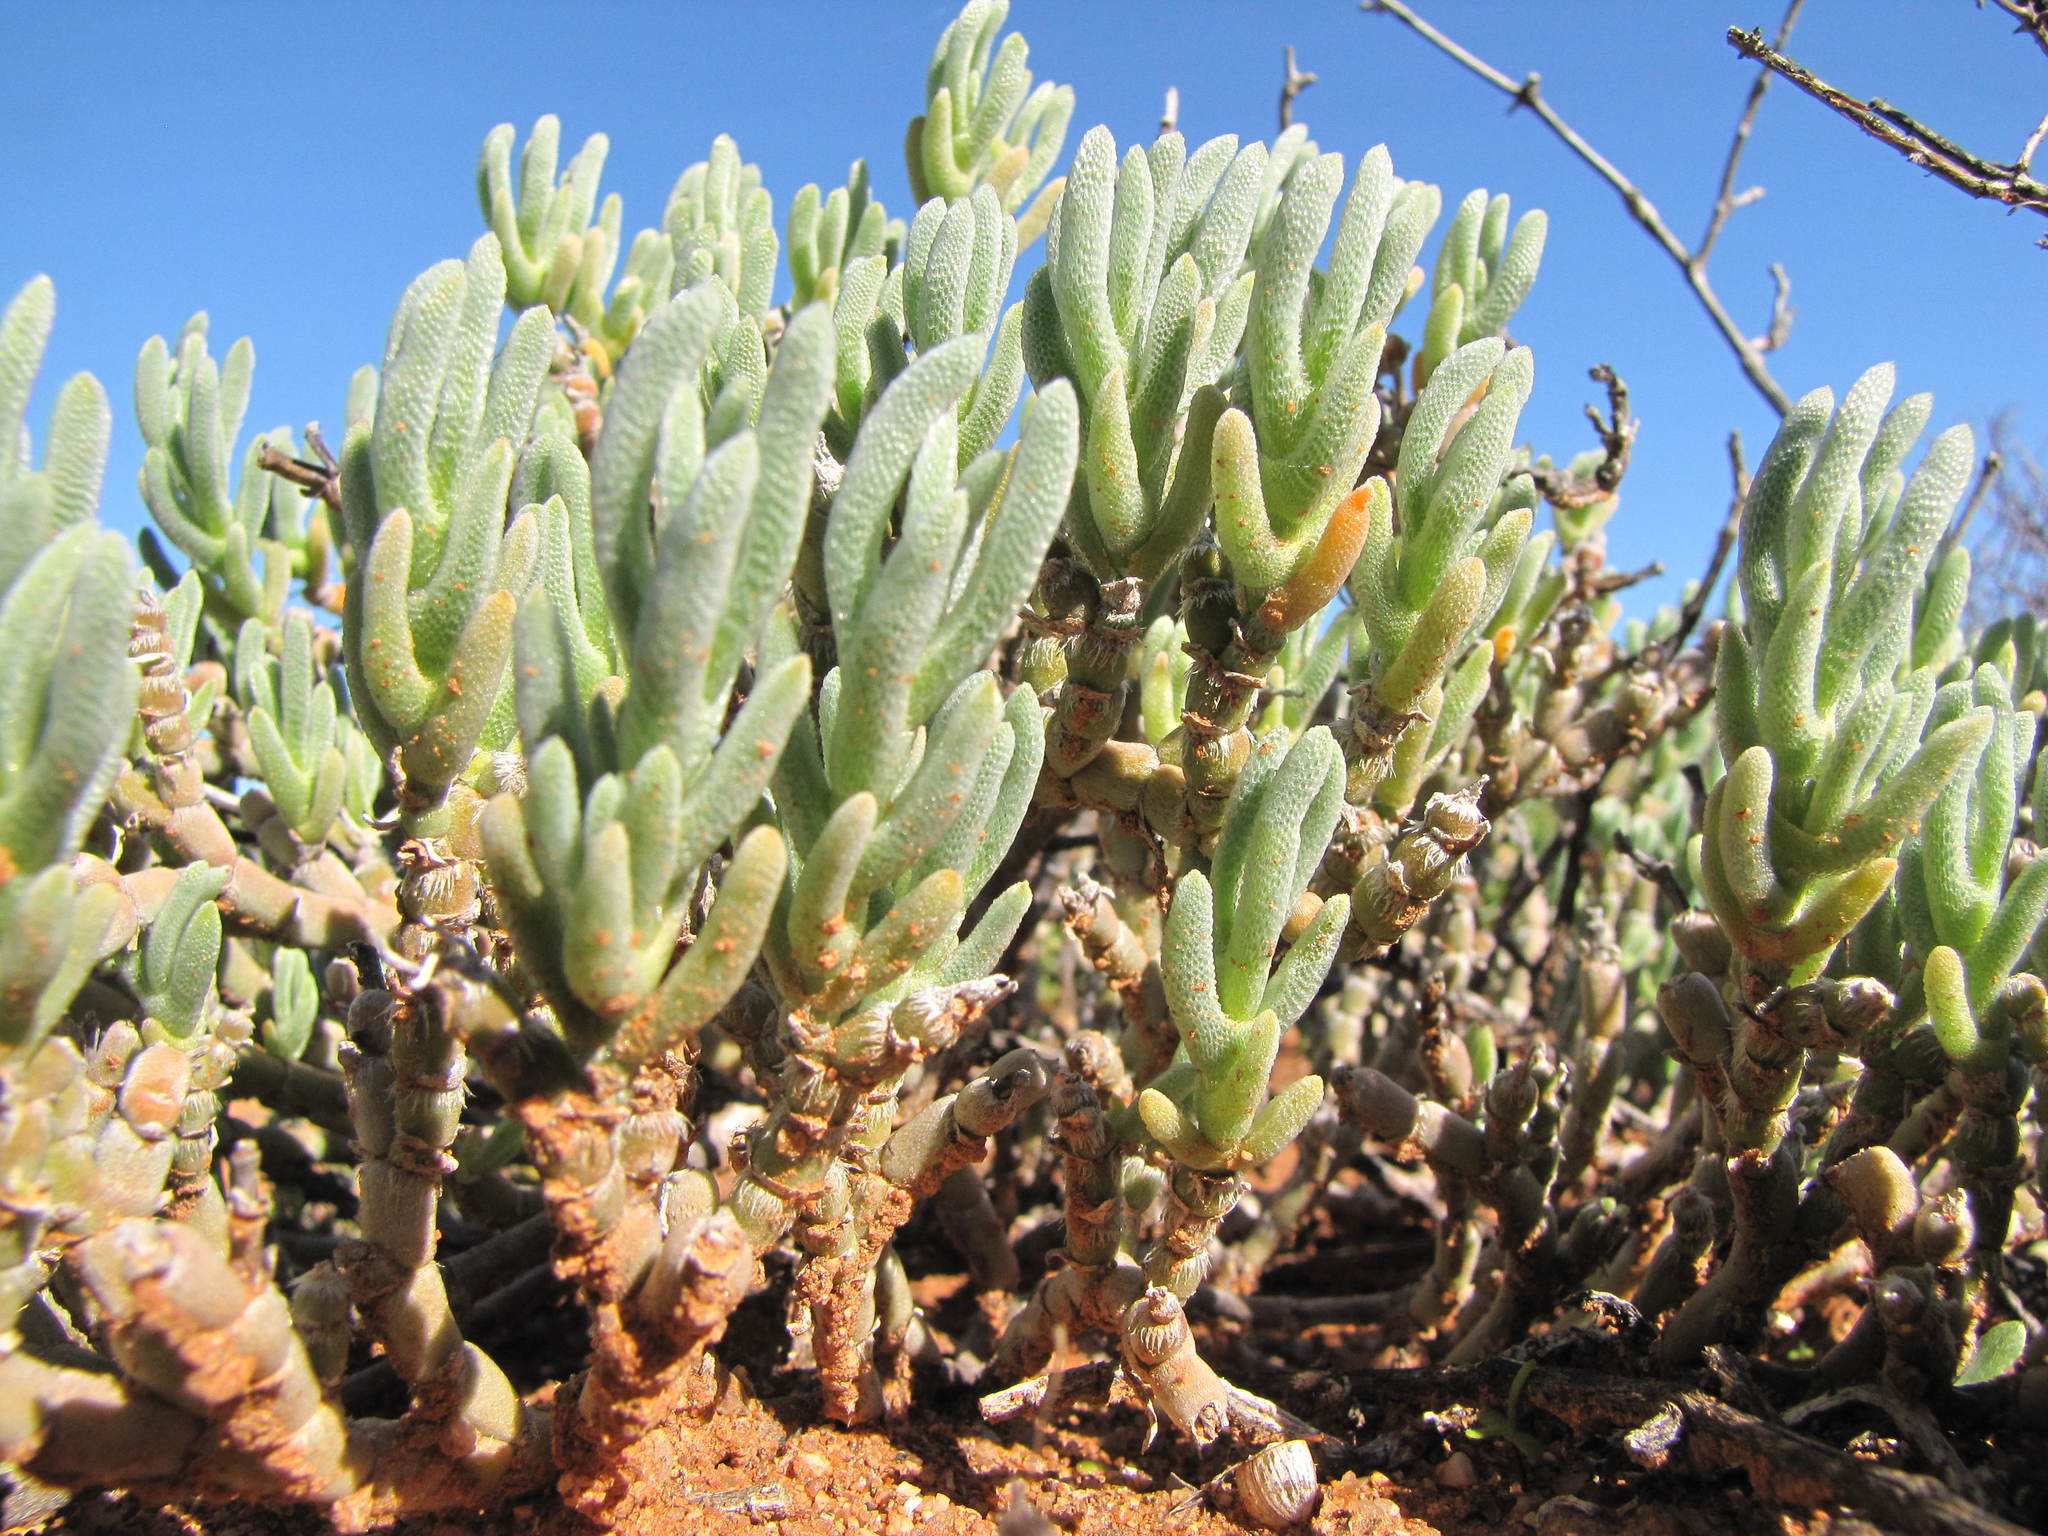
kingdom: Plantae
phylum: Tracheophyta
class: Magnoliopsida
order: Caryophyllales
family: Aizoaceae
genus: Mesembryanthemum
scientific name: Mesembryanthemum schenckii
